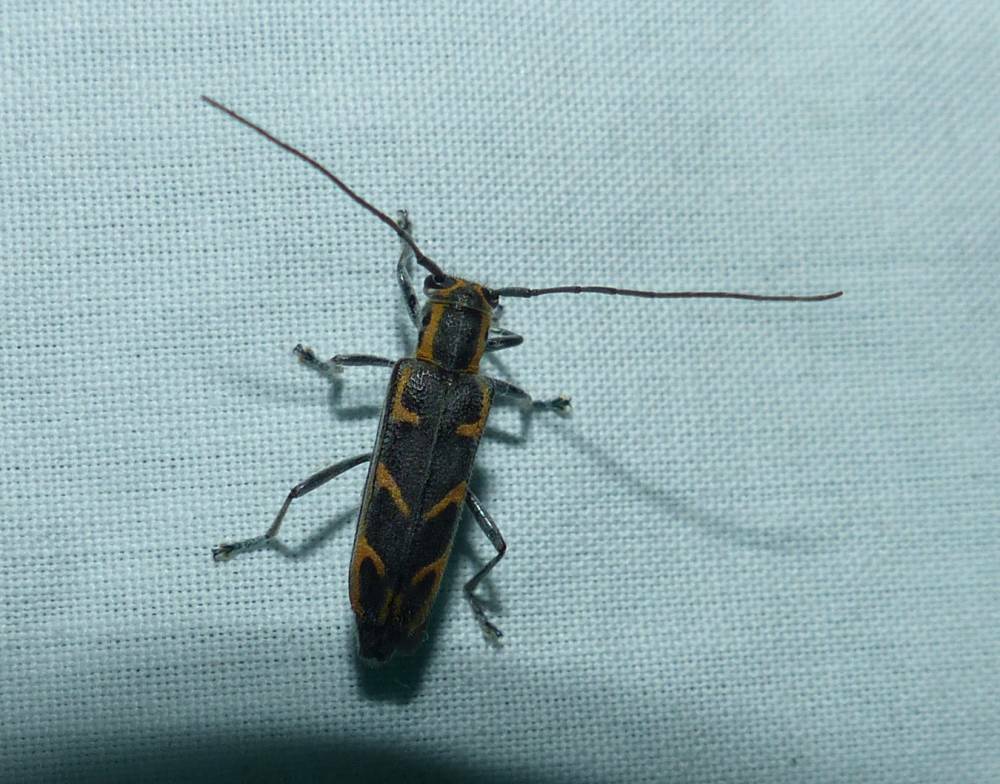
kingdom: Animalia
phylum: Arthropoda
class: Insecta
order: Coleoptera
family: Cerambycidae
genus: Saperda
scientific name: Saperda tridentata
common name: Elm borer
